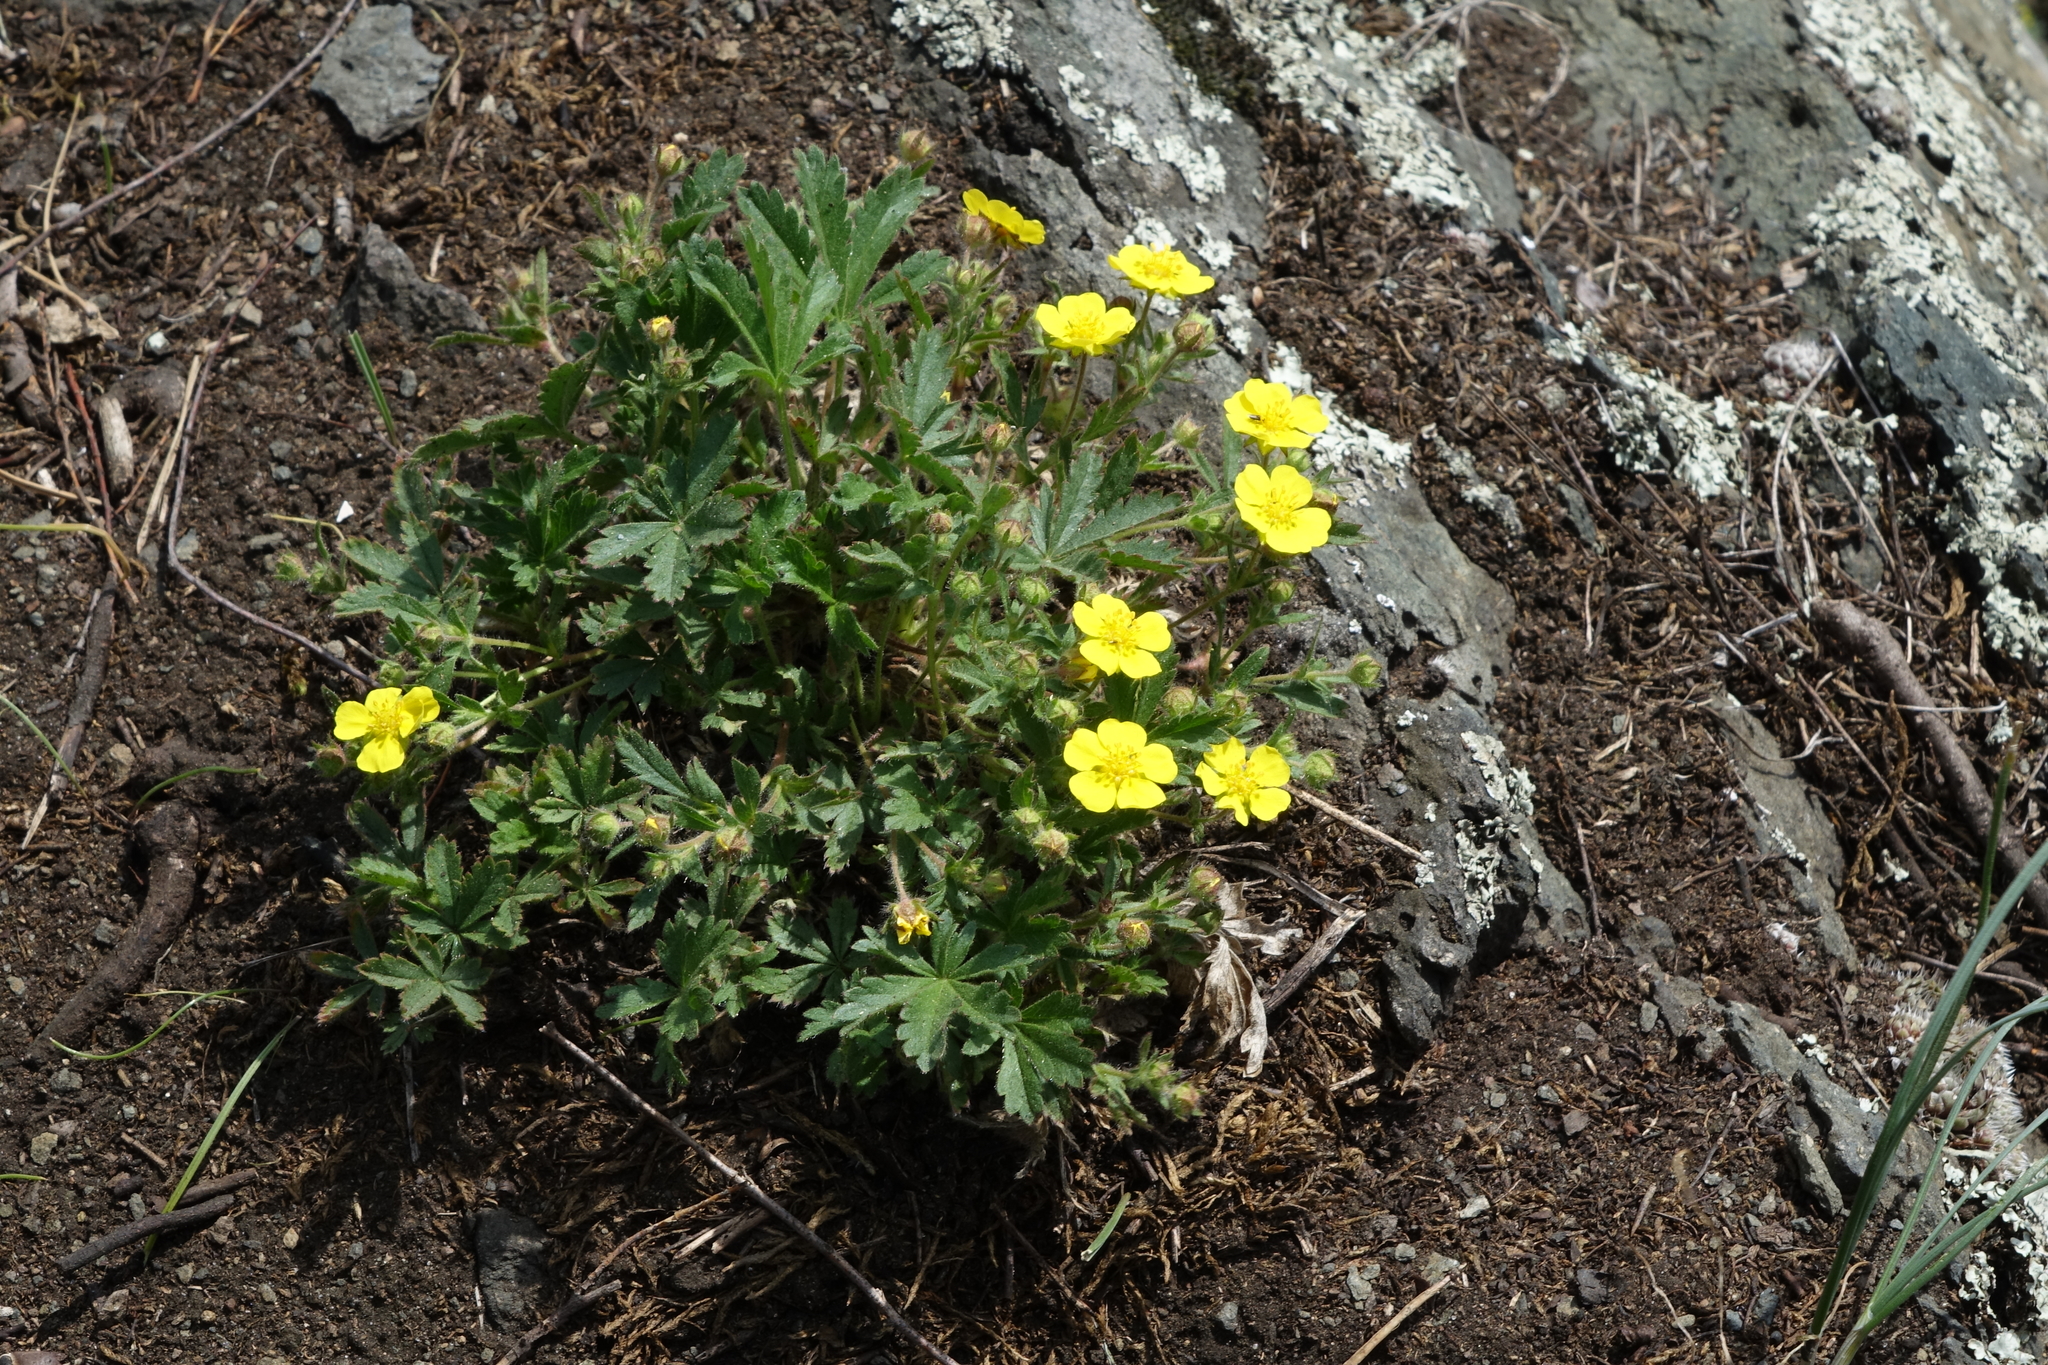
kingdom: Plantae
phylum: Tracheophyta
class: Magnoliopsida
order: Rosales
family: Rosaceae
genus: Potentilla
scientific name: Potentilla humifusa
